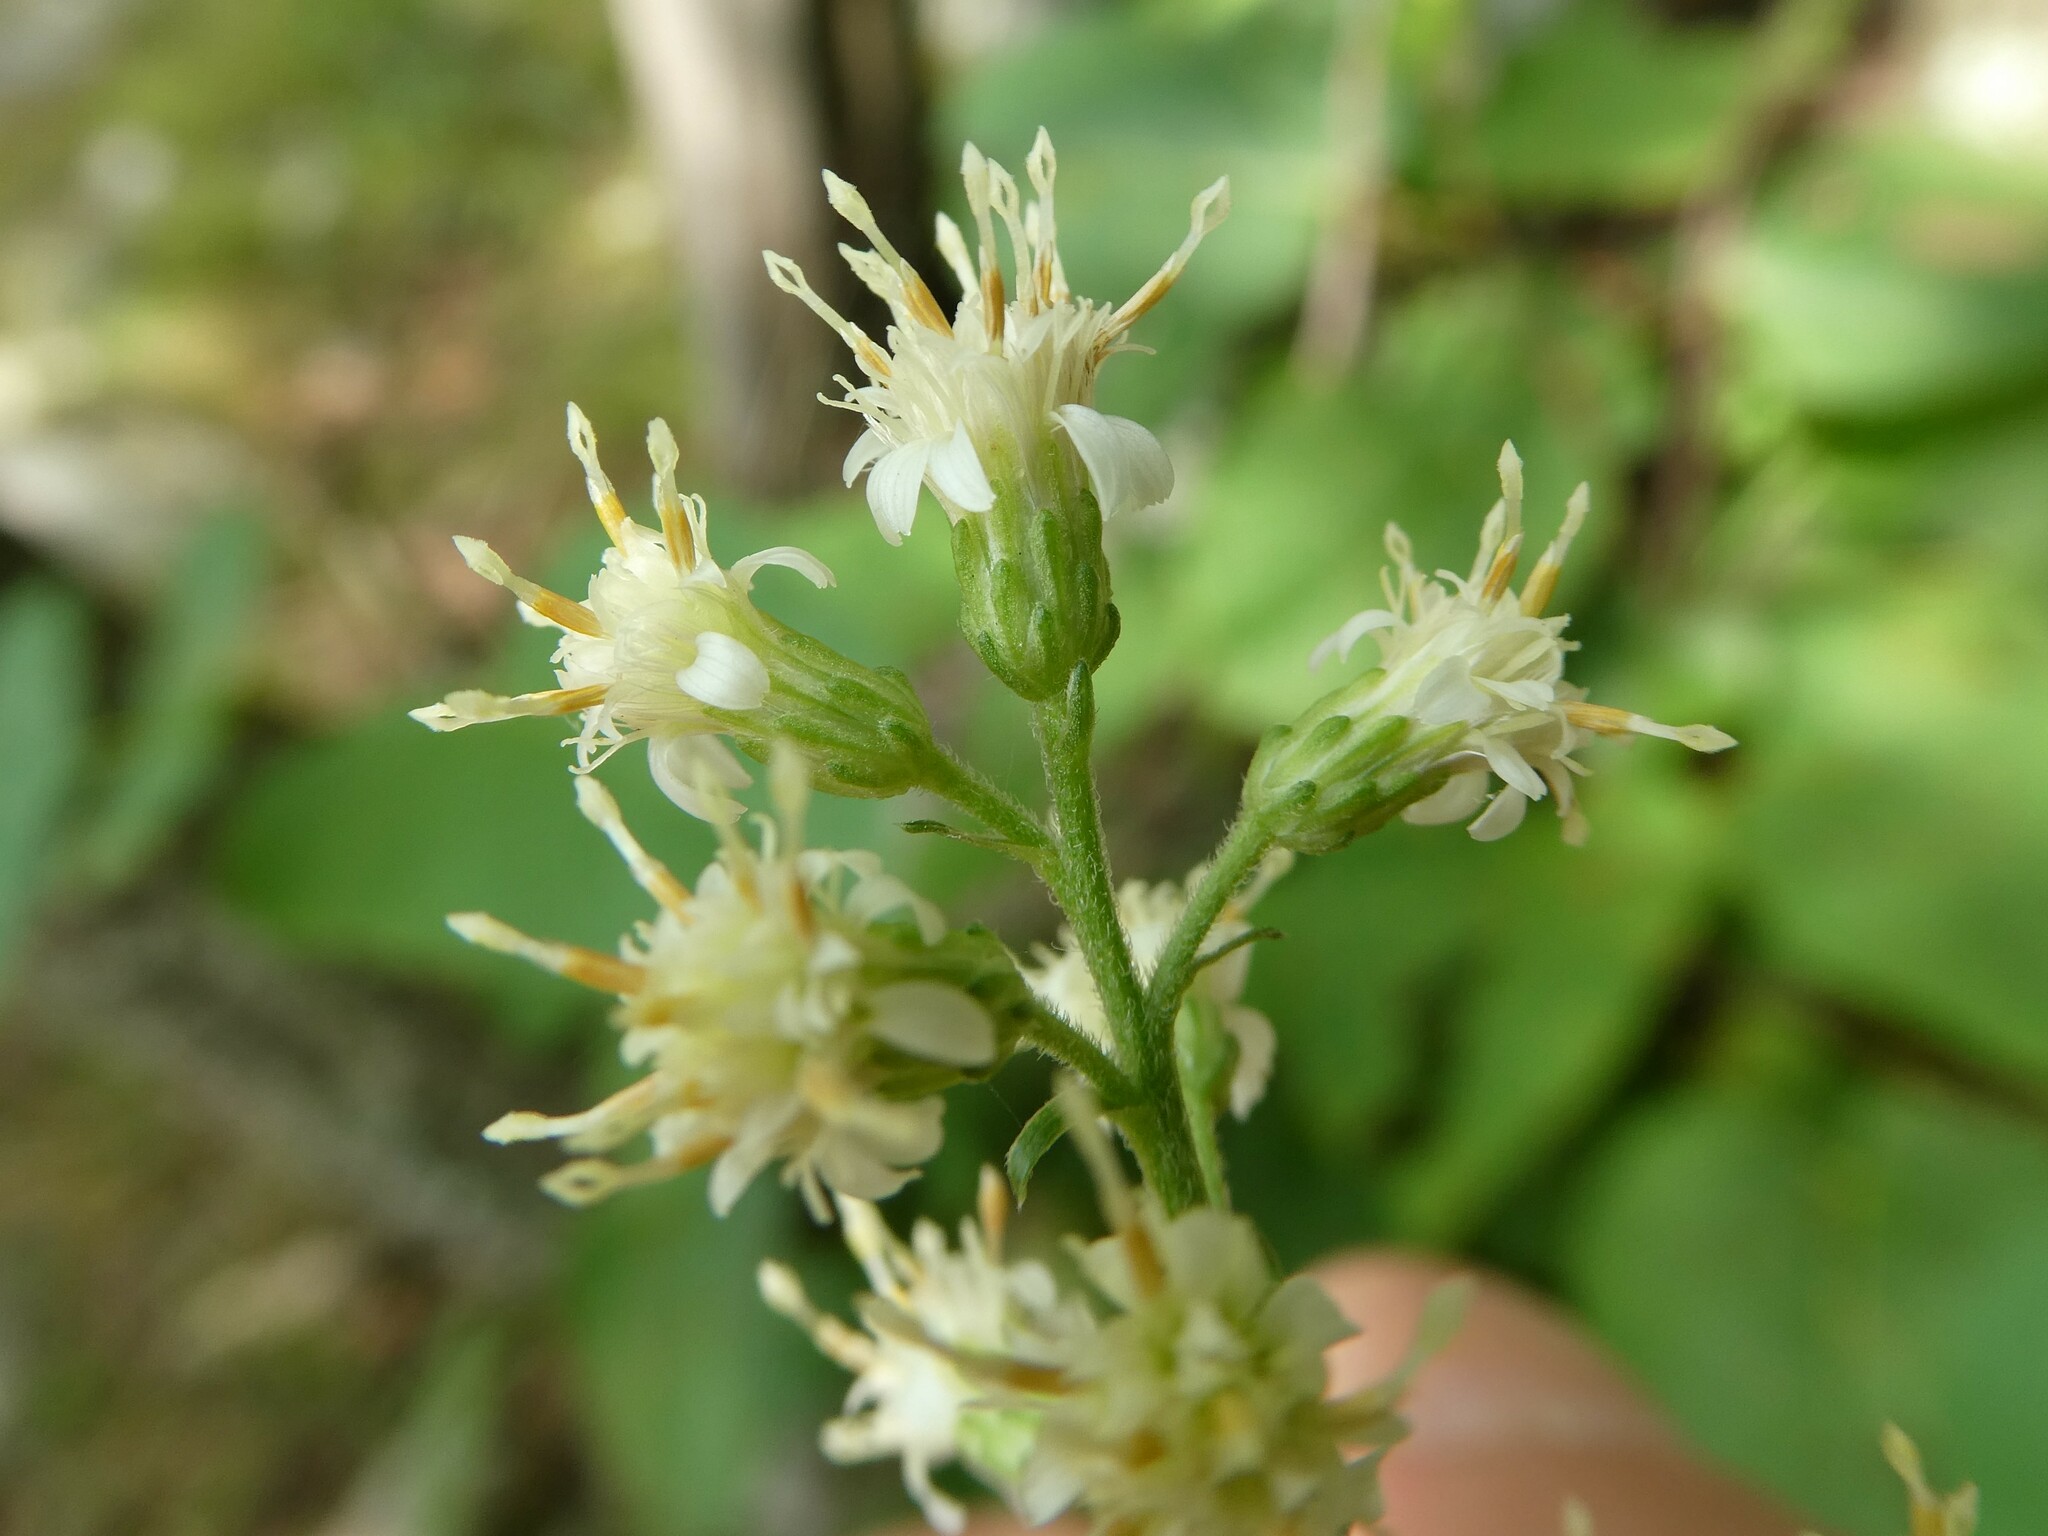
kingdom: Plantae
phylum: Tracheophyta
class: Magnoliopsida
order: Asterales
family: Asteraceae
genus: Solidago
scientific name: Solidago bicolor
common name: Silverrod
